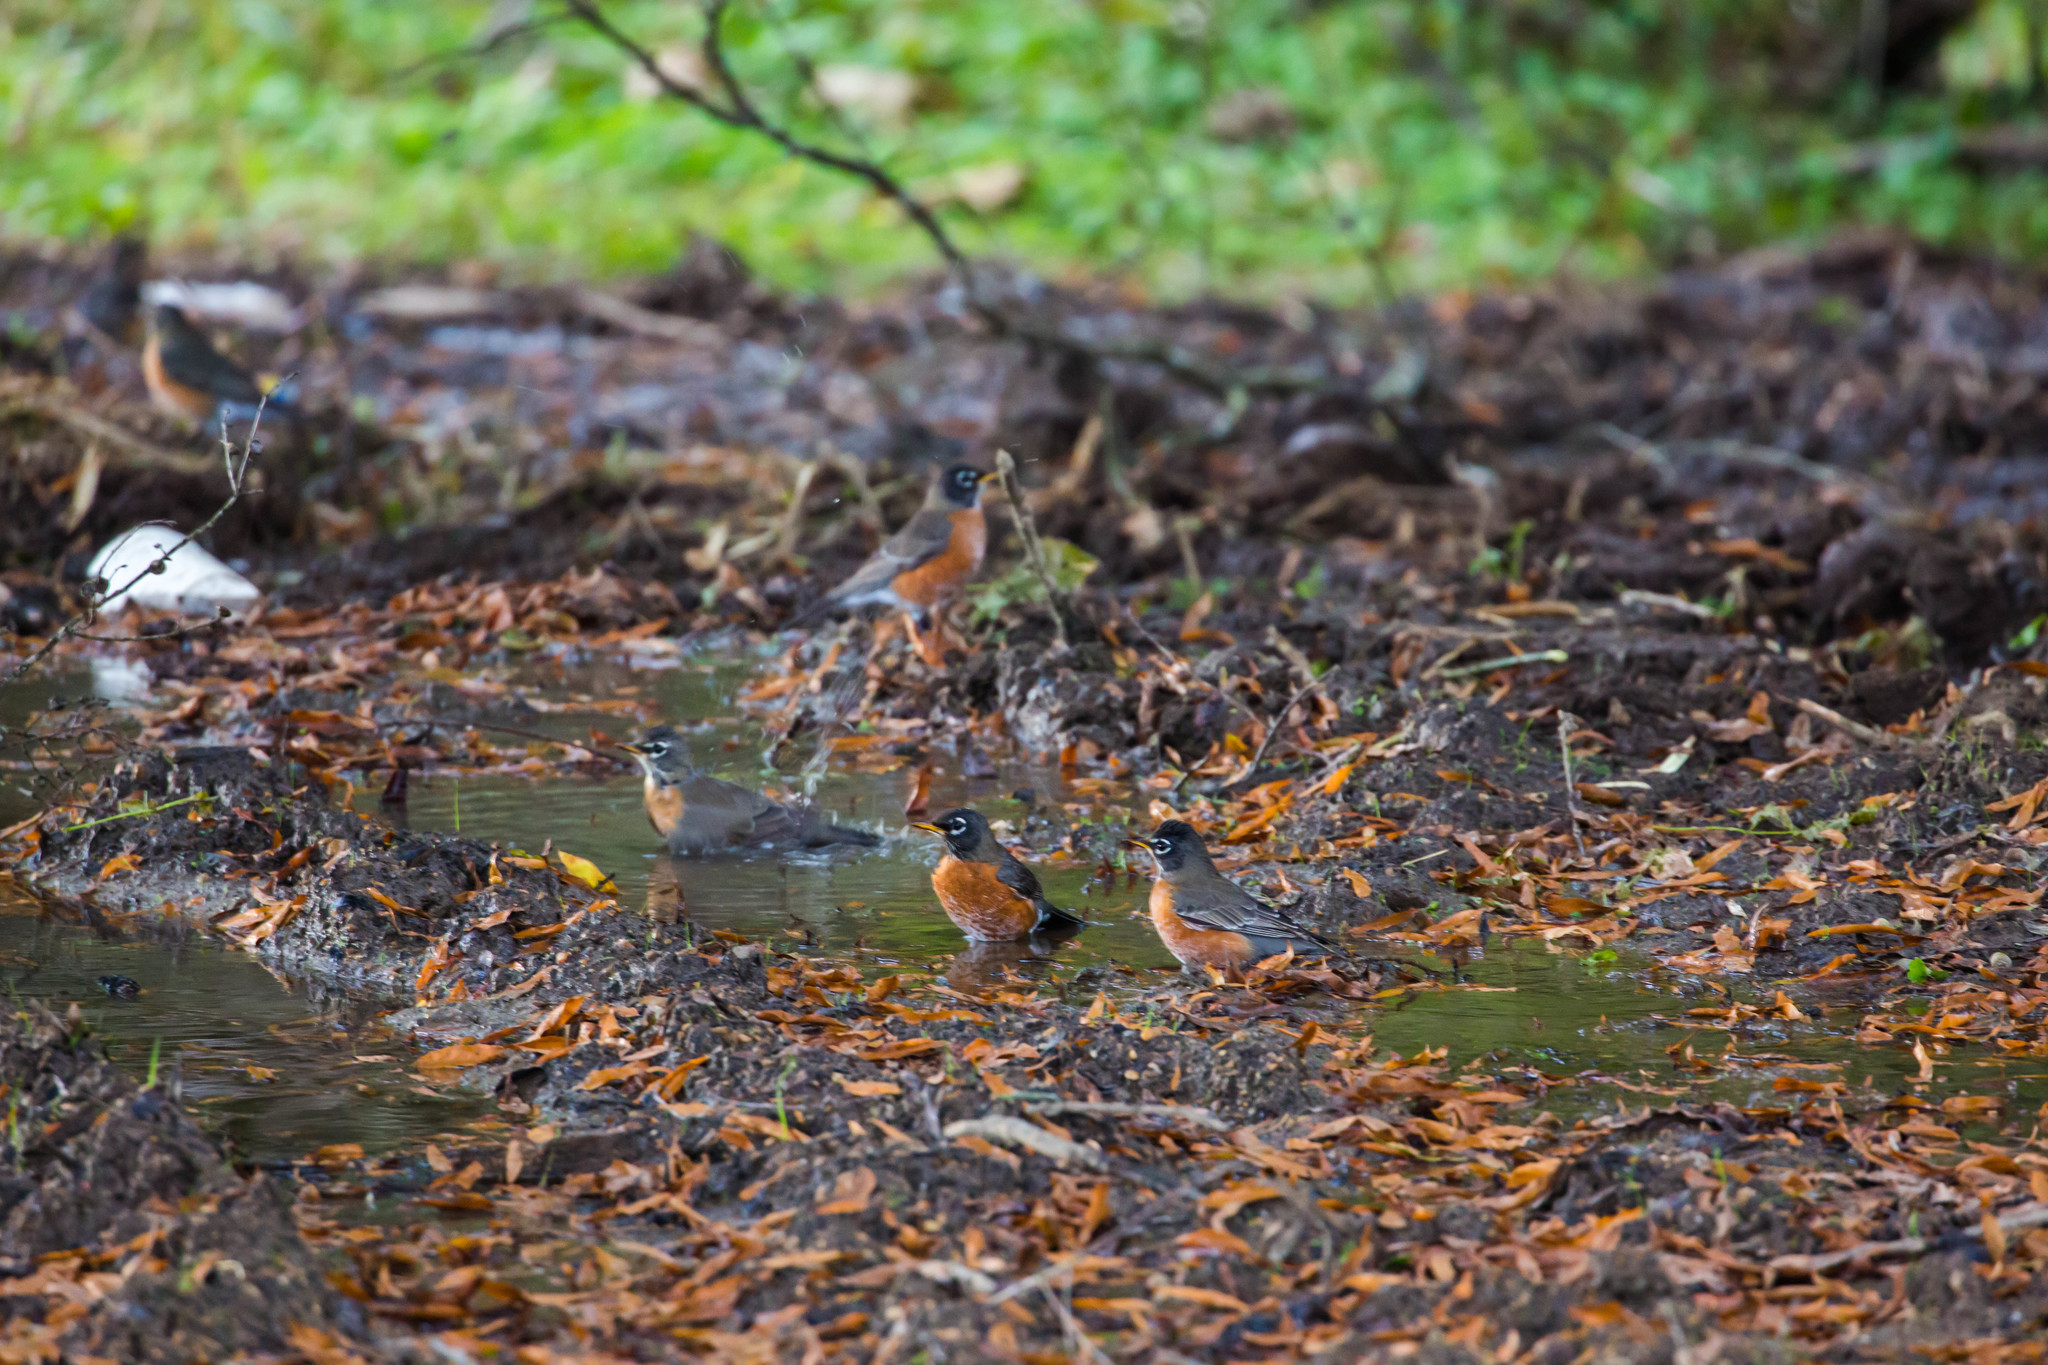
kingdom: Animalia
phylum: Chordata
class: Aves
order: Passeriformes
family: Turdidae
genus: Turdus
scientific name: Turdus migratorius
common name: American robin
